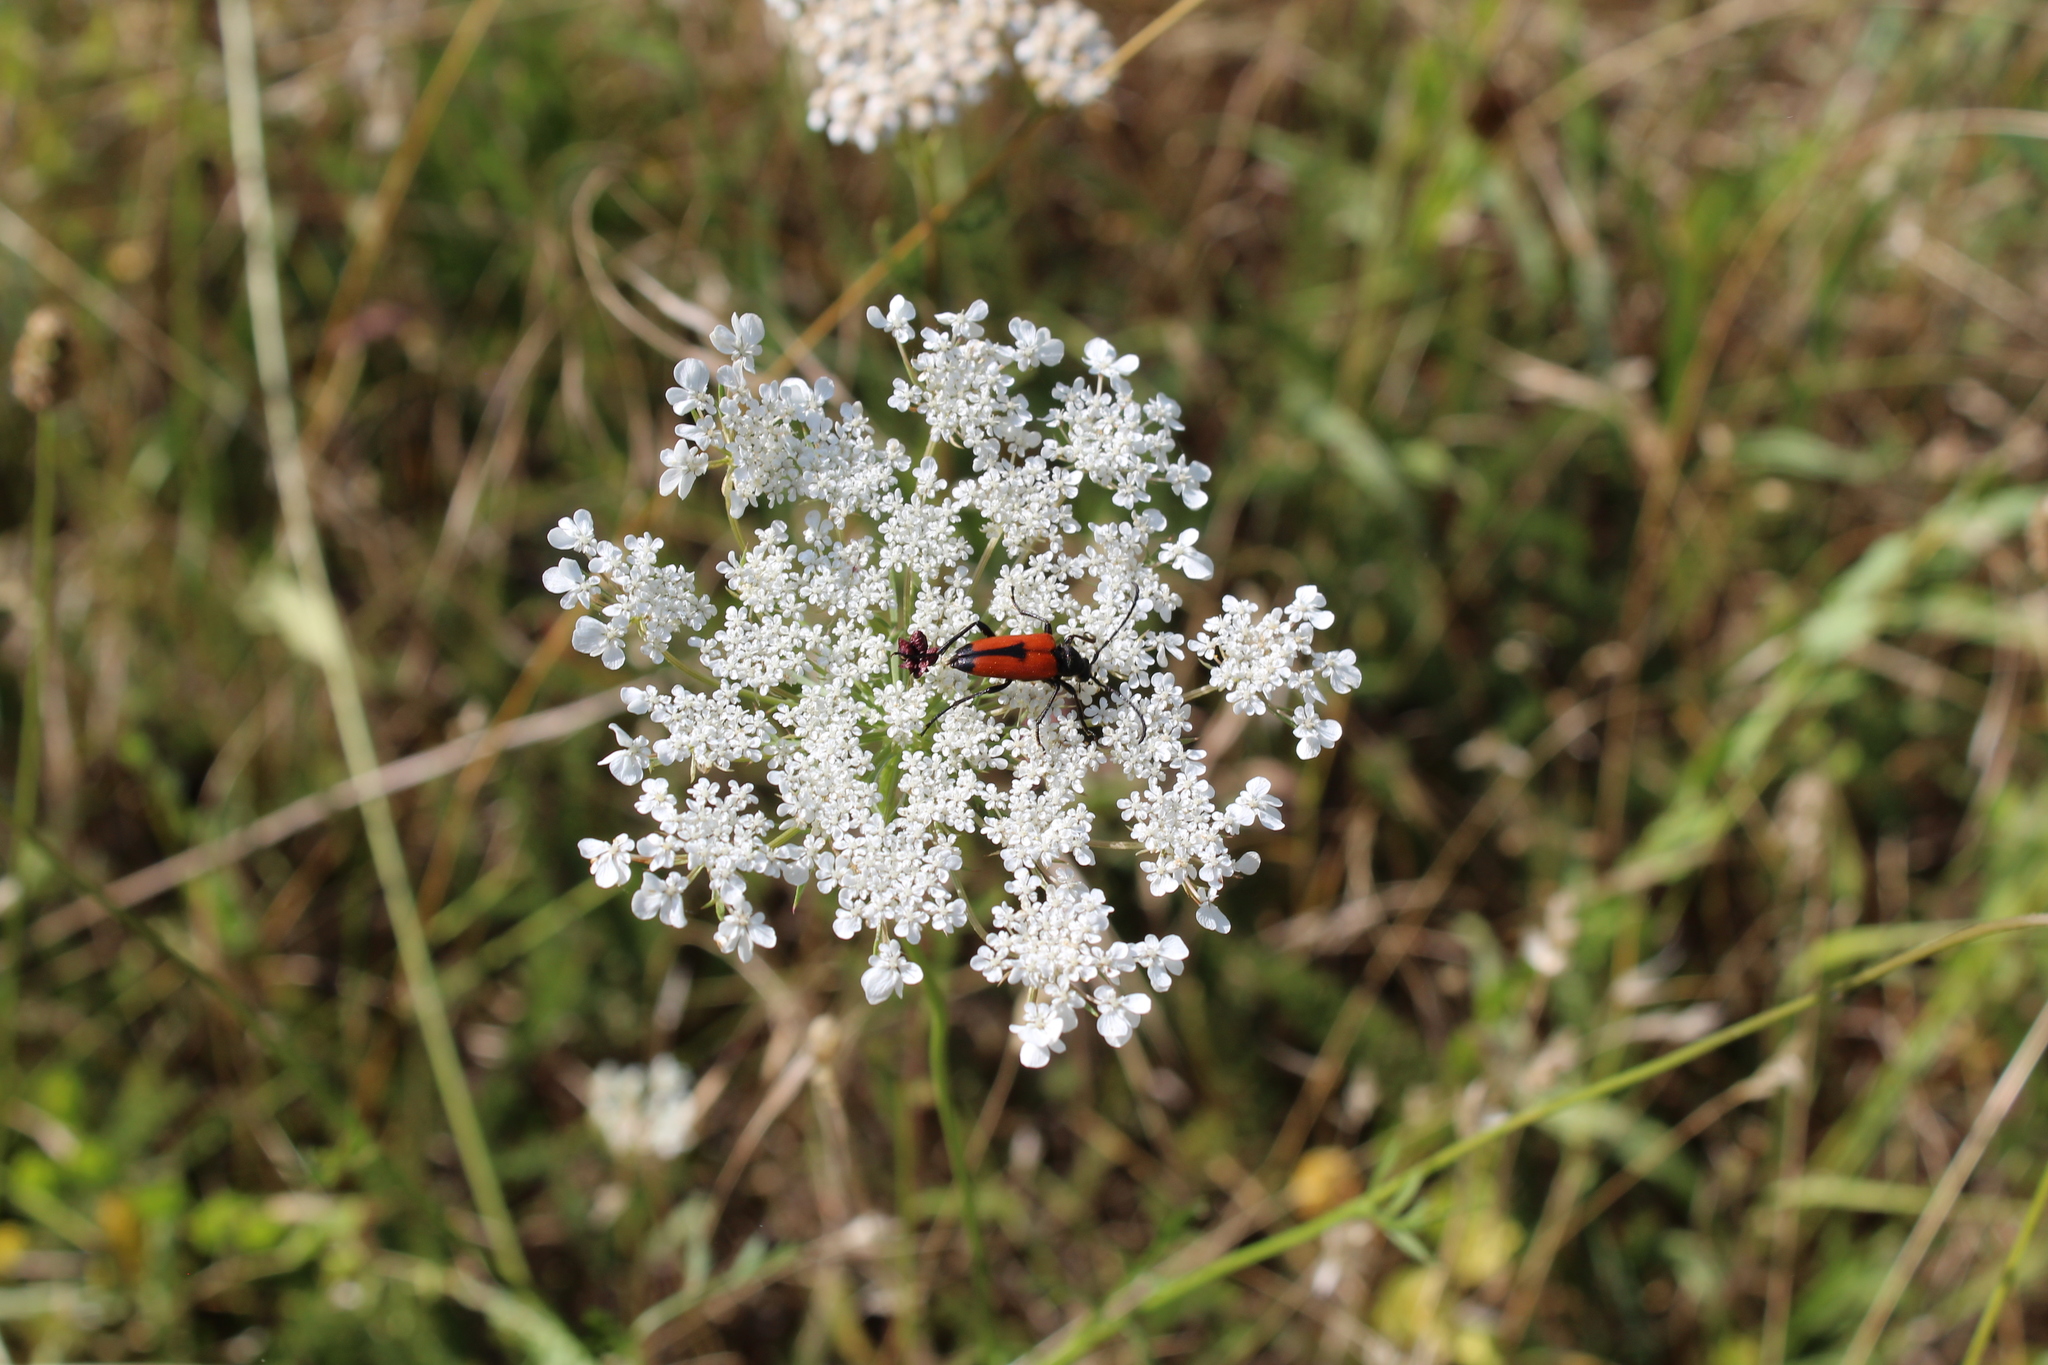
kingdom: Animalia
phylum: Arthropoda
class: Insecta
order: Coleoptera
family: Cerambycidae
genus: Stictoleptura
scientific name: Stictoleptura cordigera
